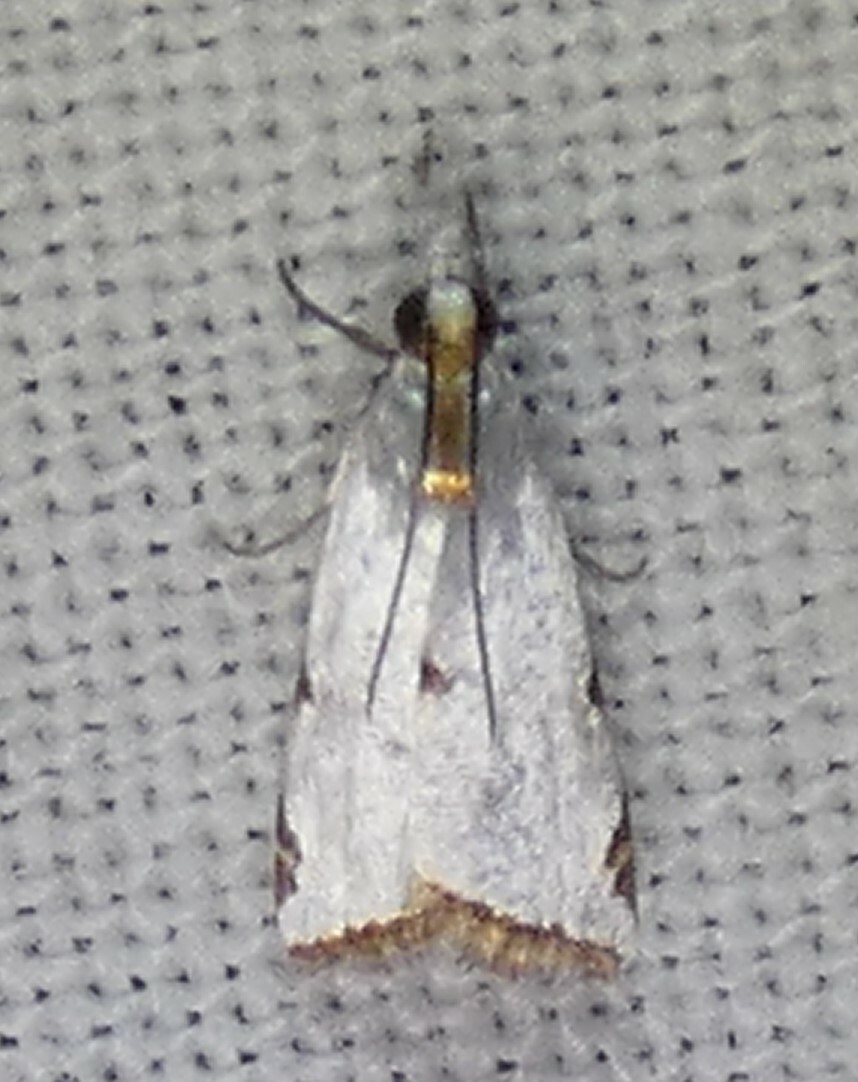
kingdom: Animalia
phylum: Arthropoda
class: Insecta
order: Lepidoptera
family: Crambidae
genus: Argyria
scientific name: Argyria lacteella
